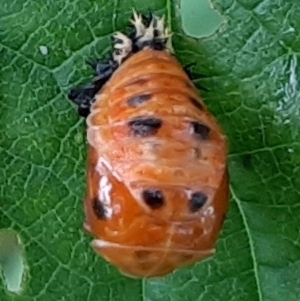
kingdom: Animalia
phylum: Arthropoda
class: Insecta
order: Coleoptera
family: Coccinellidae
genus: Harmonia
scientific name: Harmonia axyridis
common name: Harlequin ladybird
